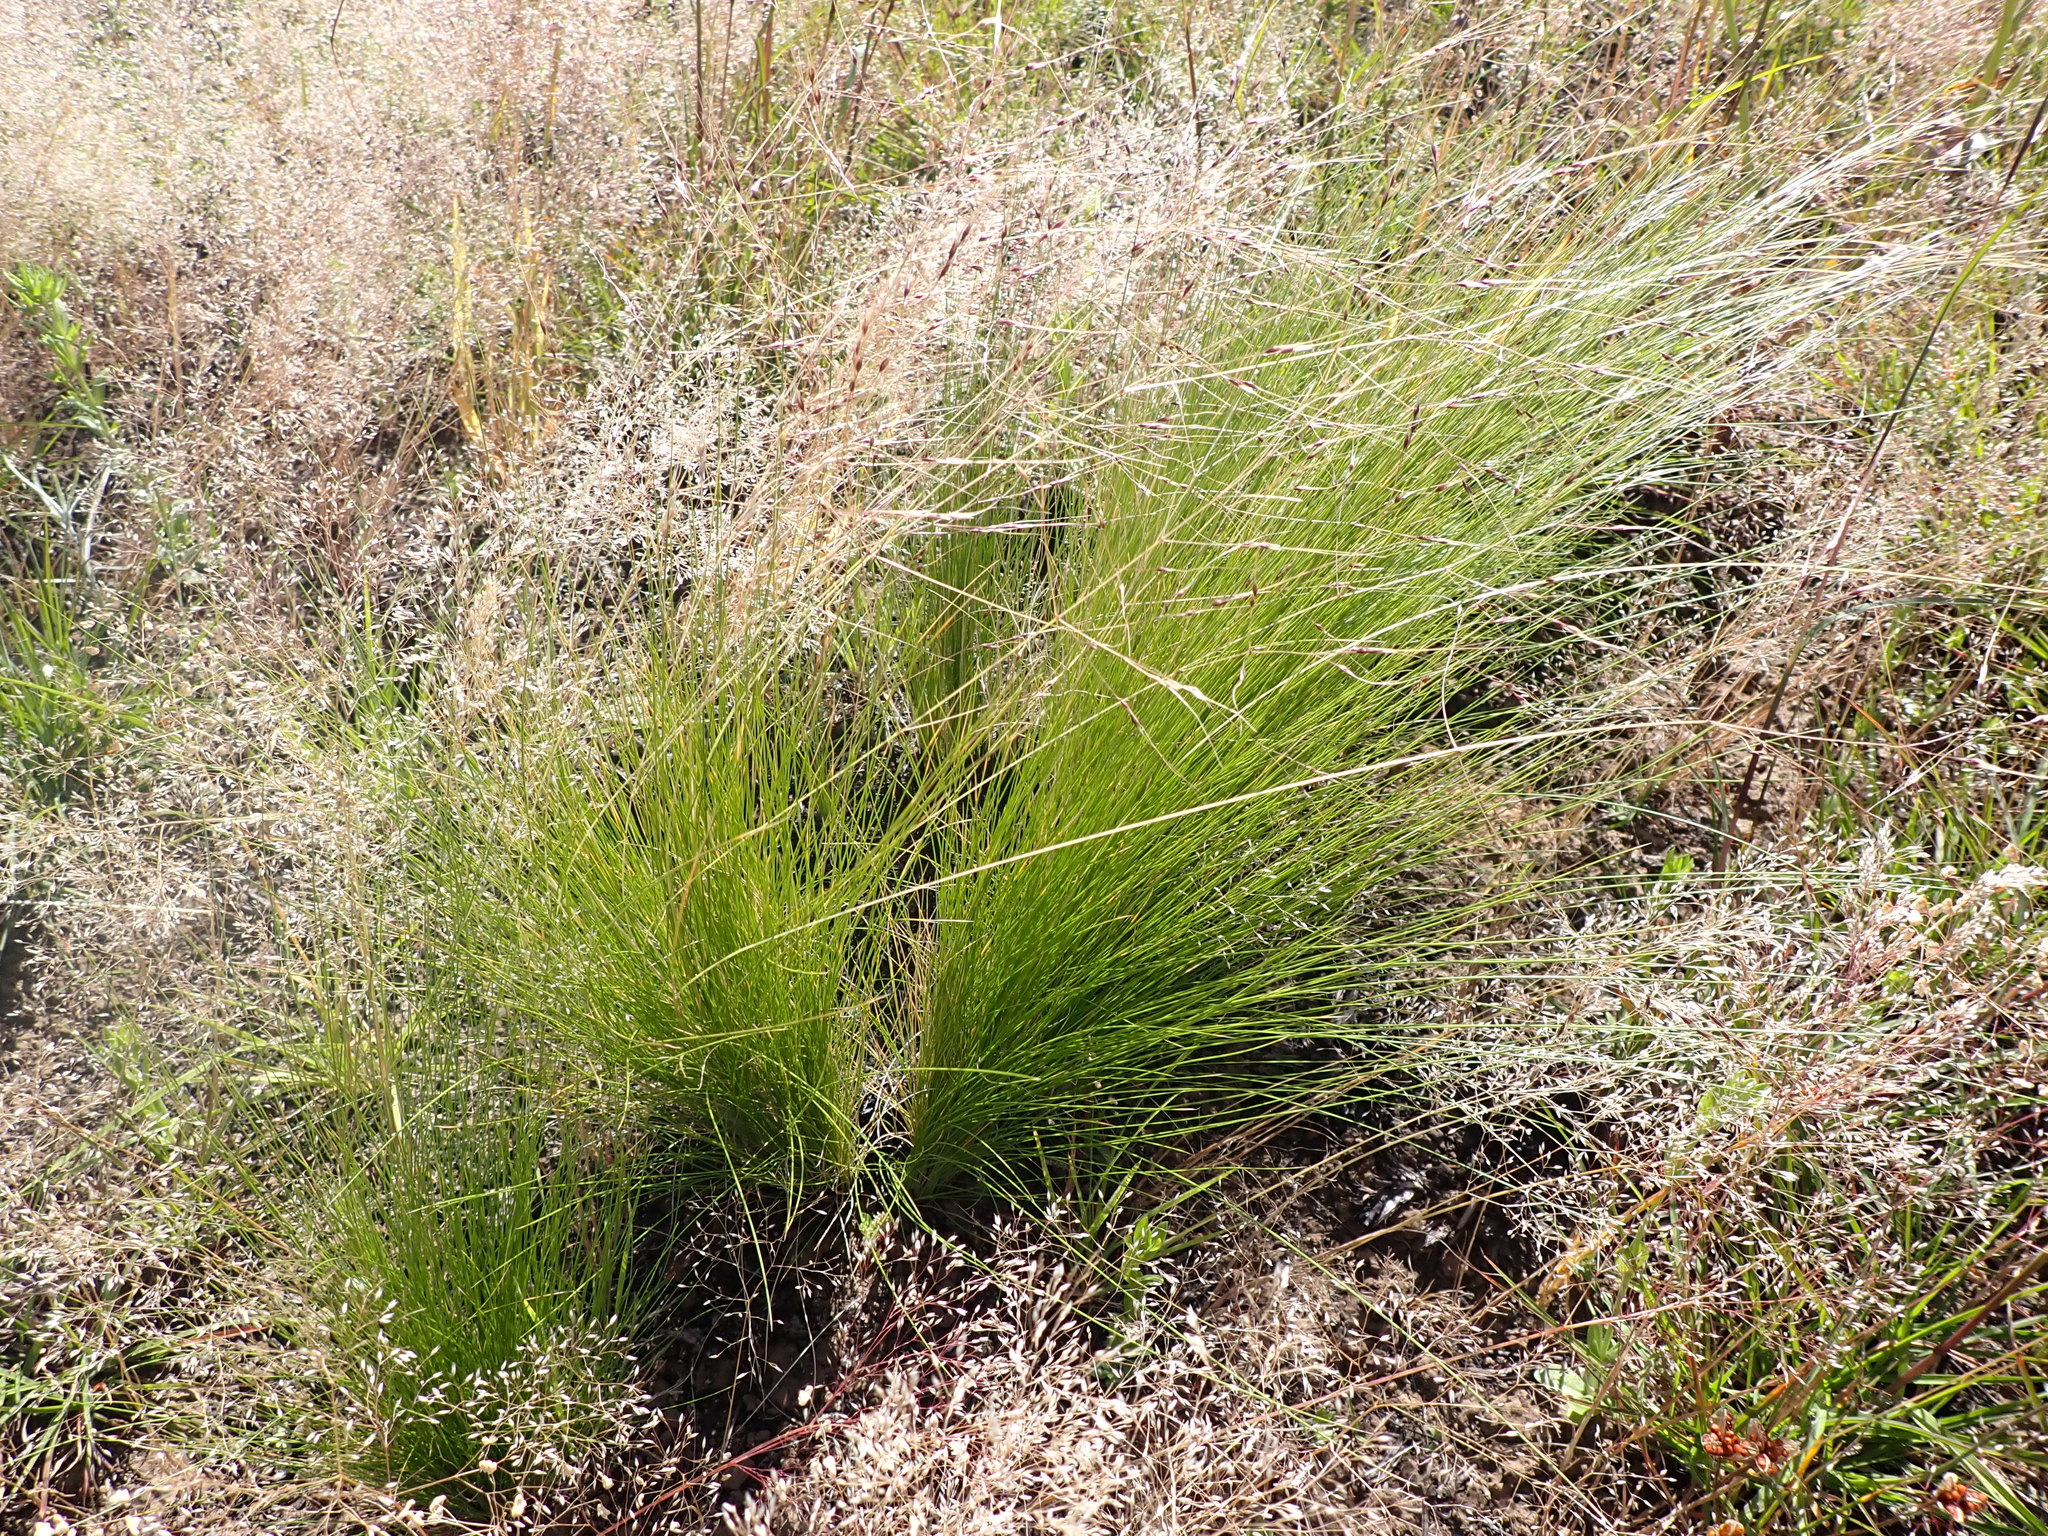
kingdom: Plantae
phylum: Tracheophyta
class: Liliopsida
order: Poales
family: Poaceae
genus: Nassella
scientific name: Nassella trichotoma
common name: Serrated tussock grass
